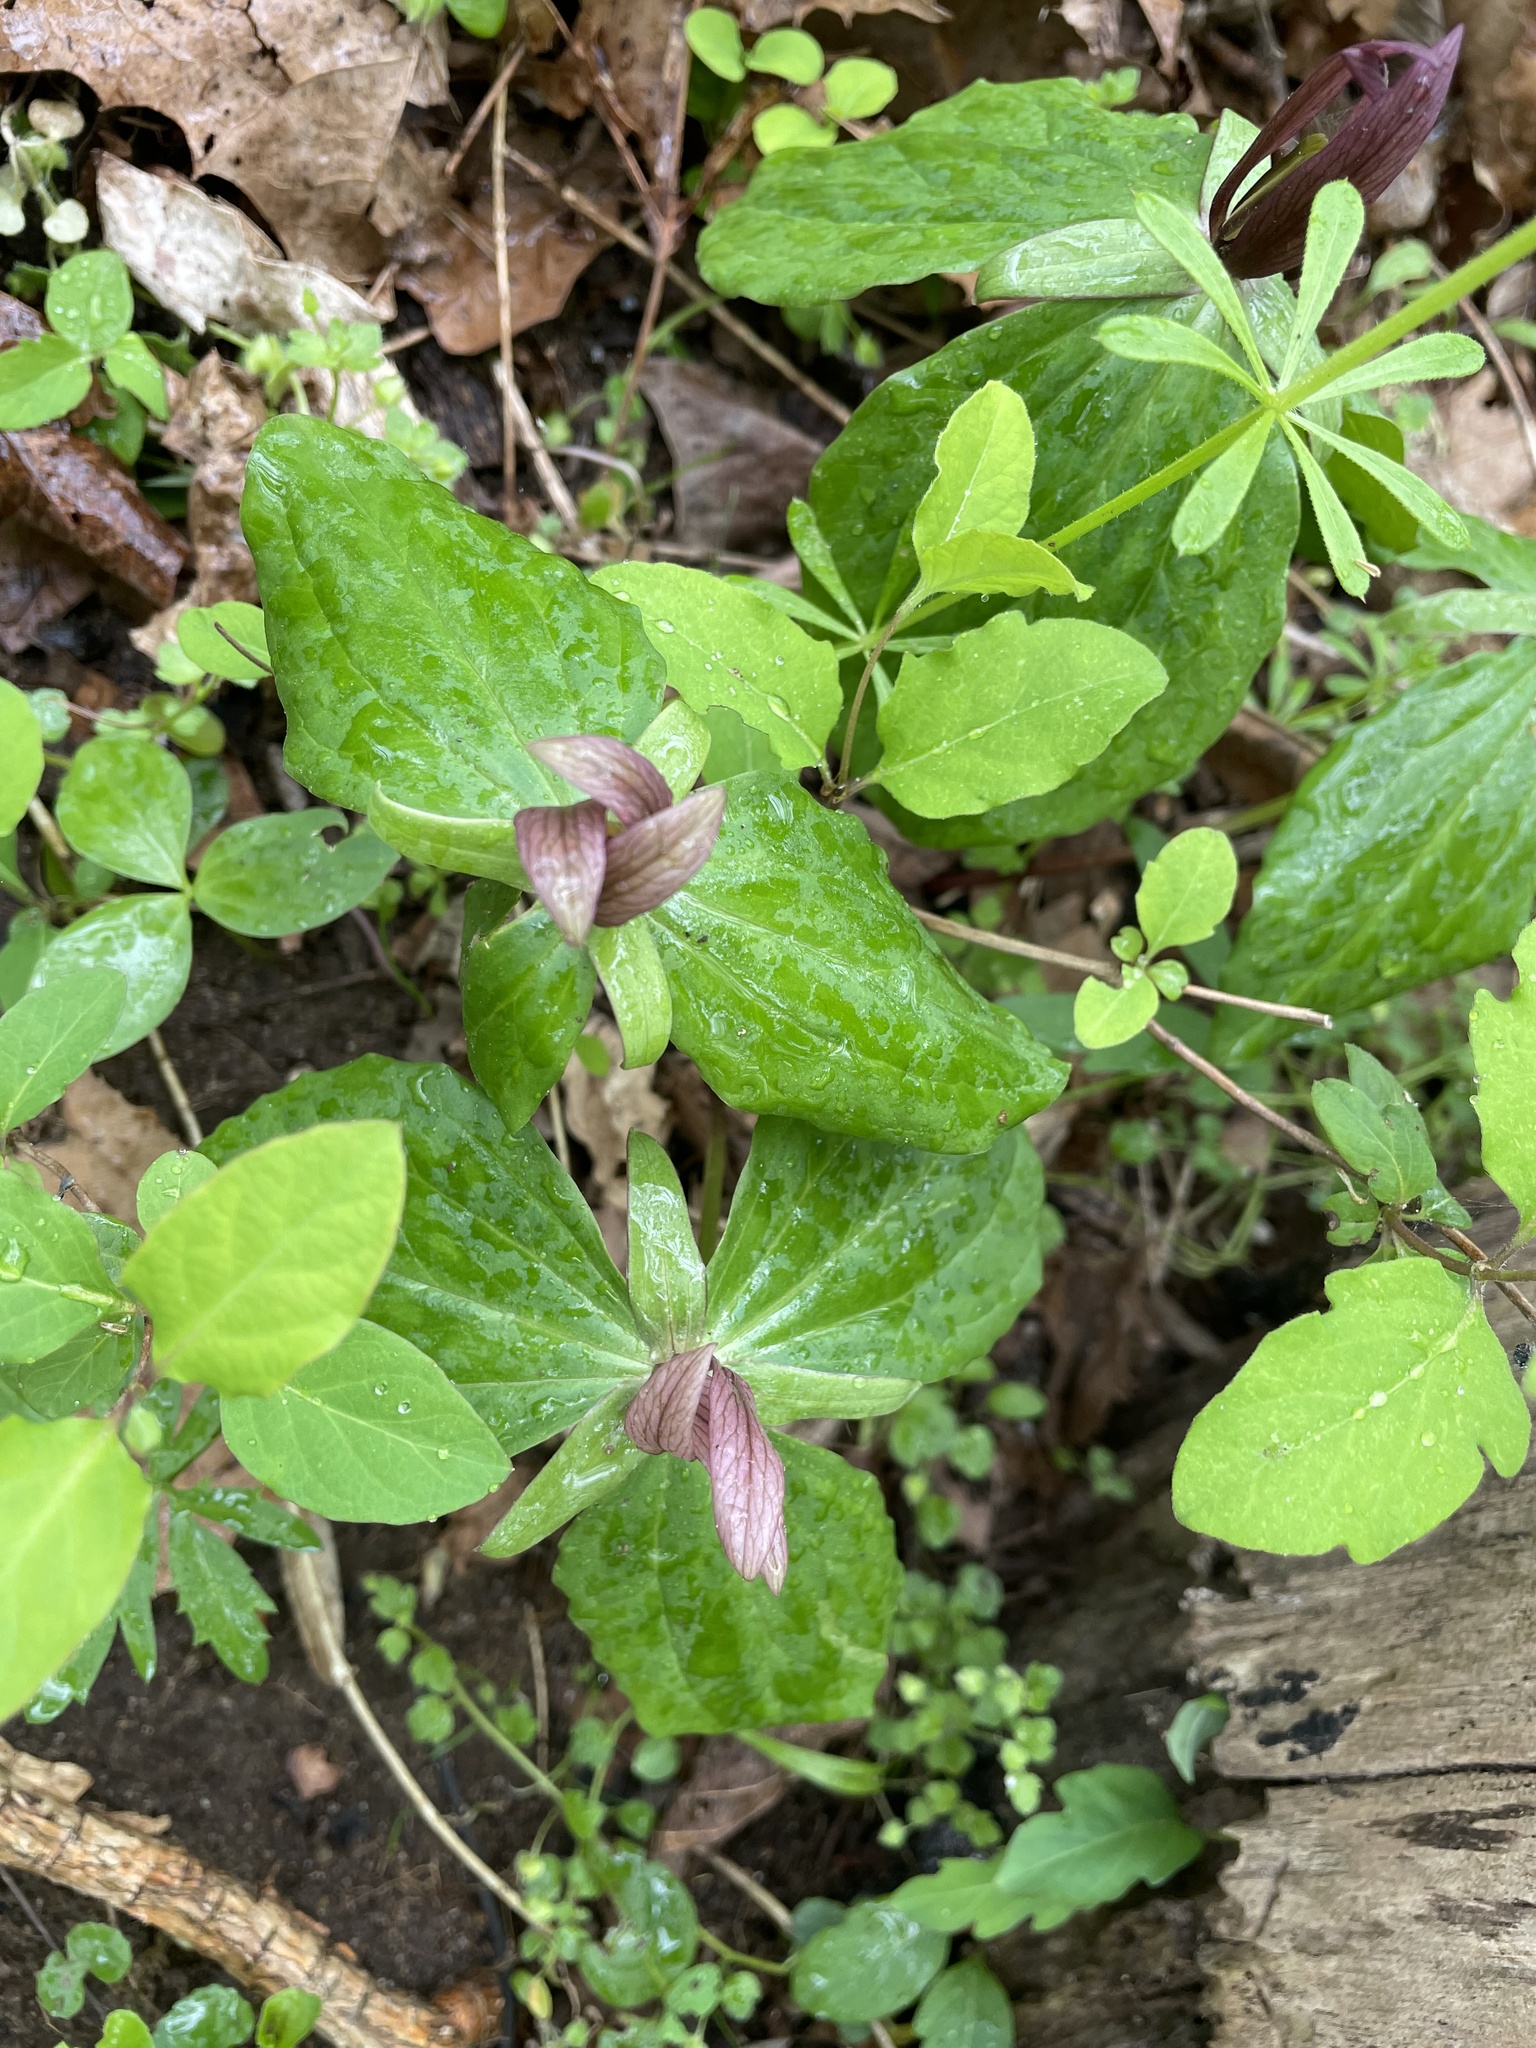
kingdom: Plantae
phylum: Tracheophyta
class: Liliopsida
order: Liliales
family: Melanthiaceae
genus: Trillium
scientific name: Trillium sessile
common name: Sessile trillium
